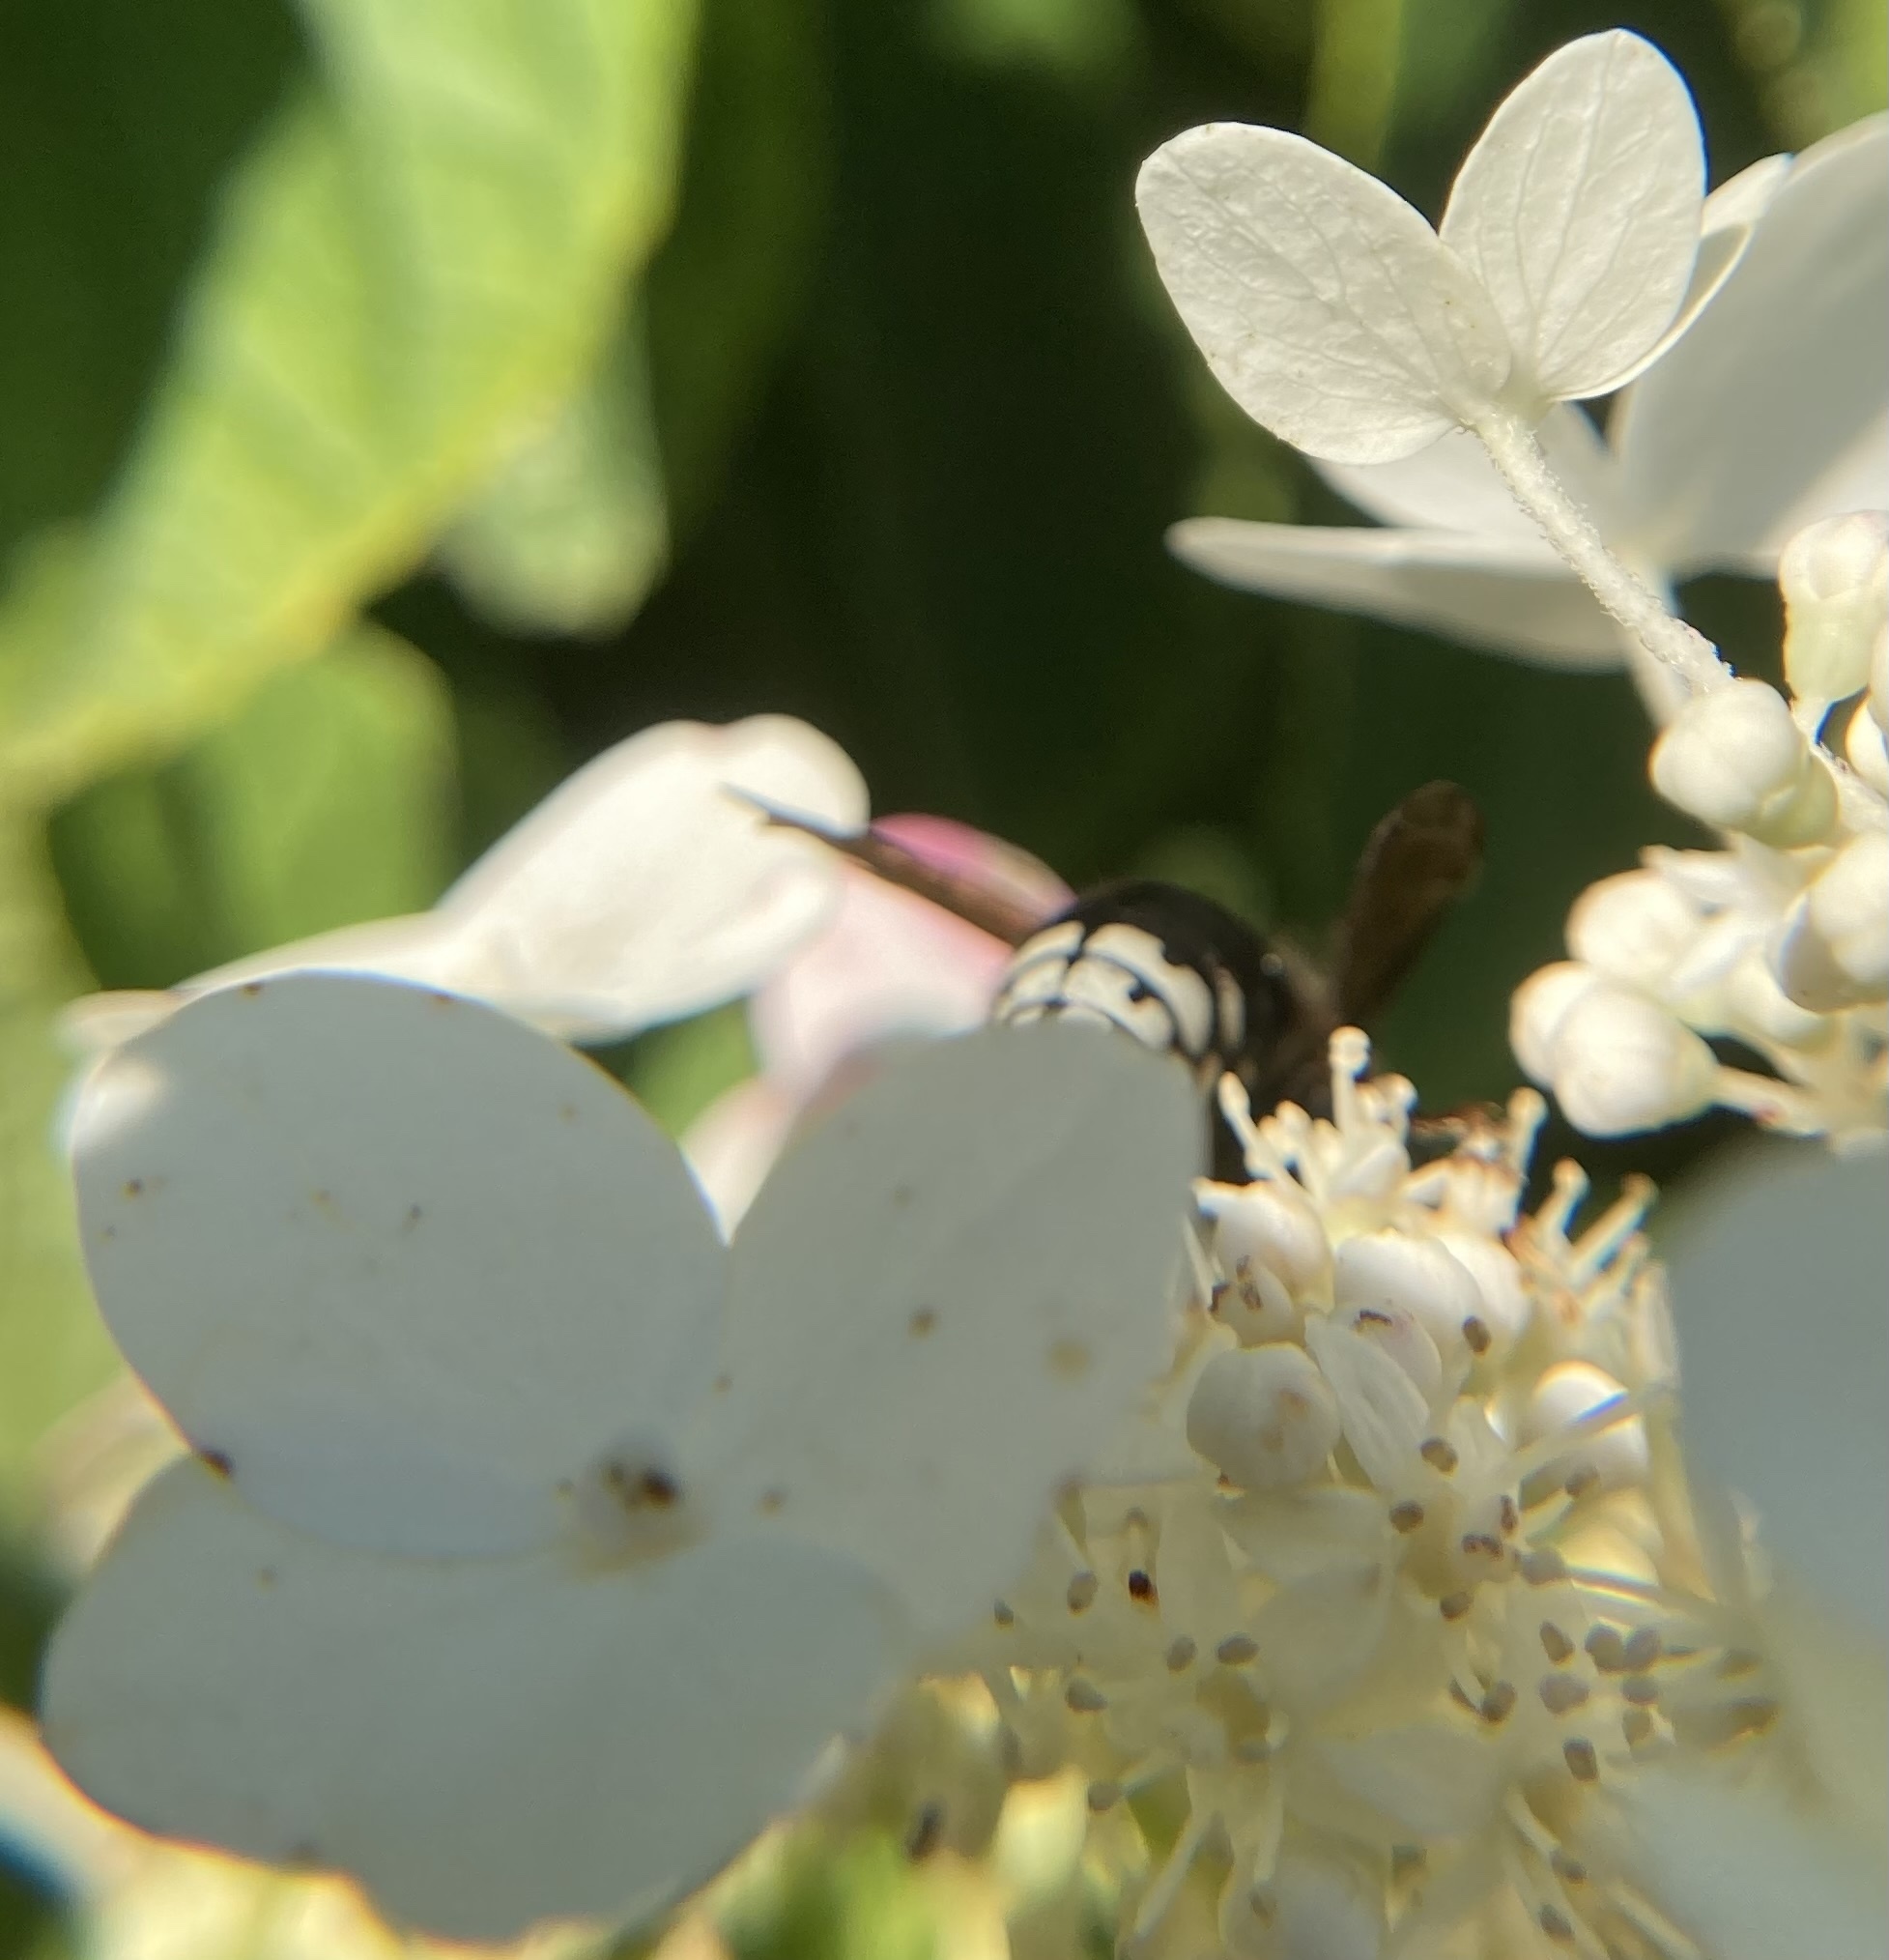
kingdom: Animalia
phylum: Arthropoda
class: Insecta
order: Hymenoptera
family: Vespidae
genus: Dolichovespula
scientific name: Dolichovespula maculata
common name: Bald-faced hornet
